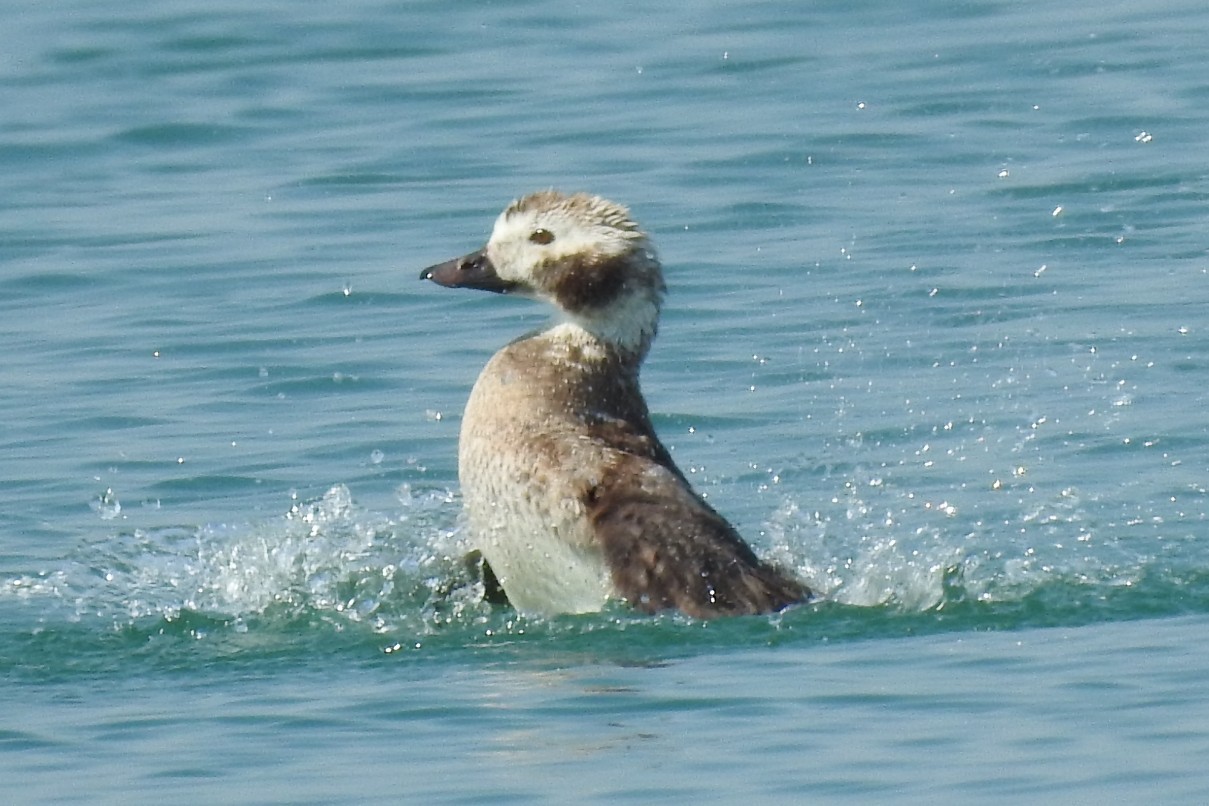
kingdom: Animalia
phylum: Chordata
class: Aves
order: Anseriformes
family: Anatidae
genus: Clangula
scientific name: Clangula hyemalis
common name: Long-tailed duck
